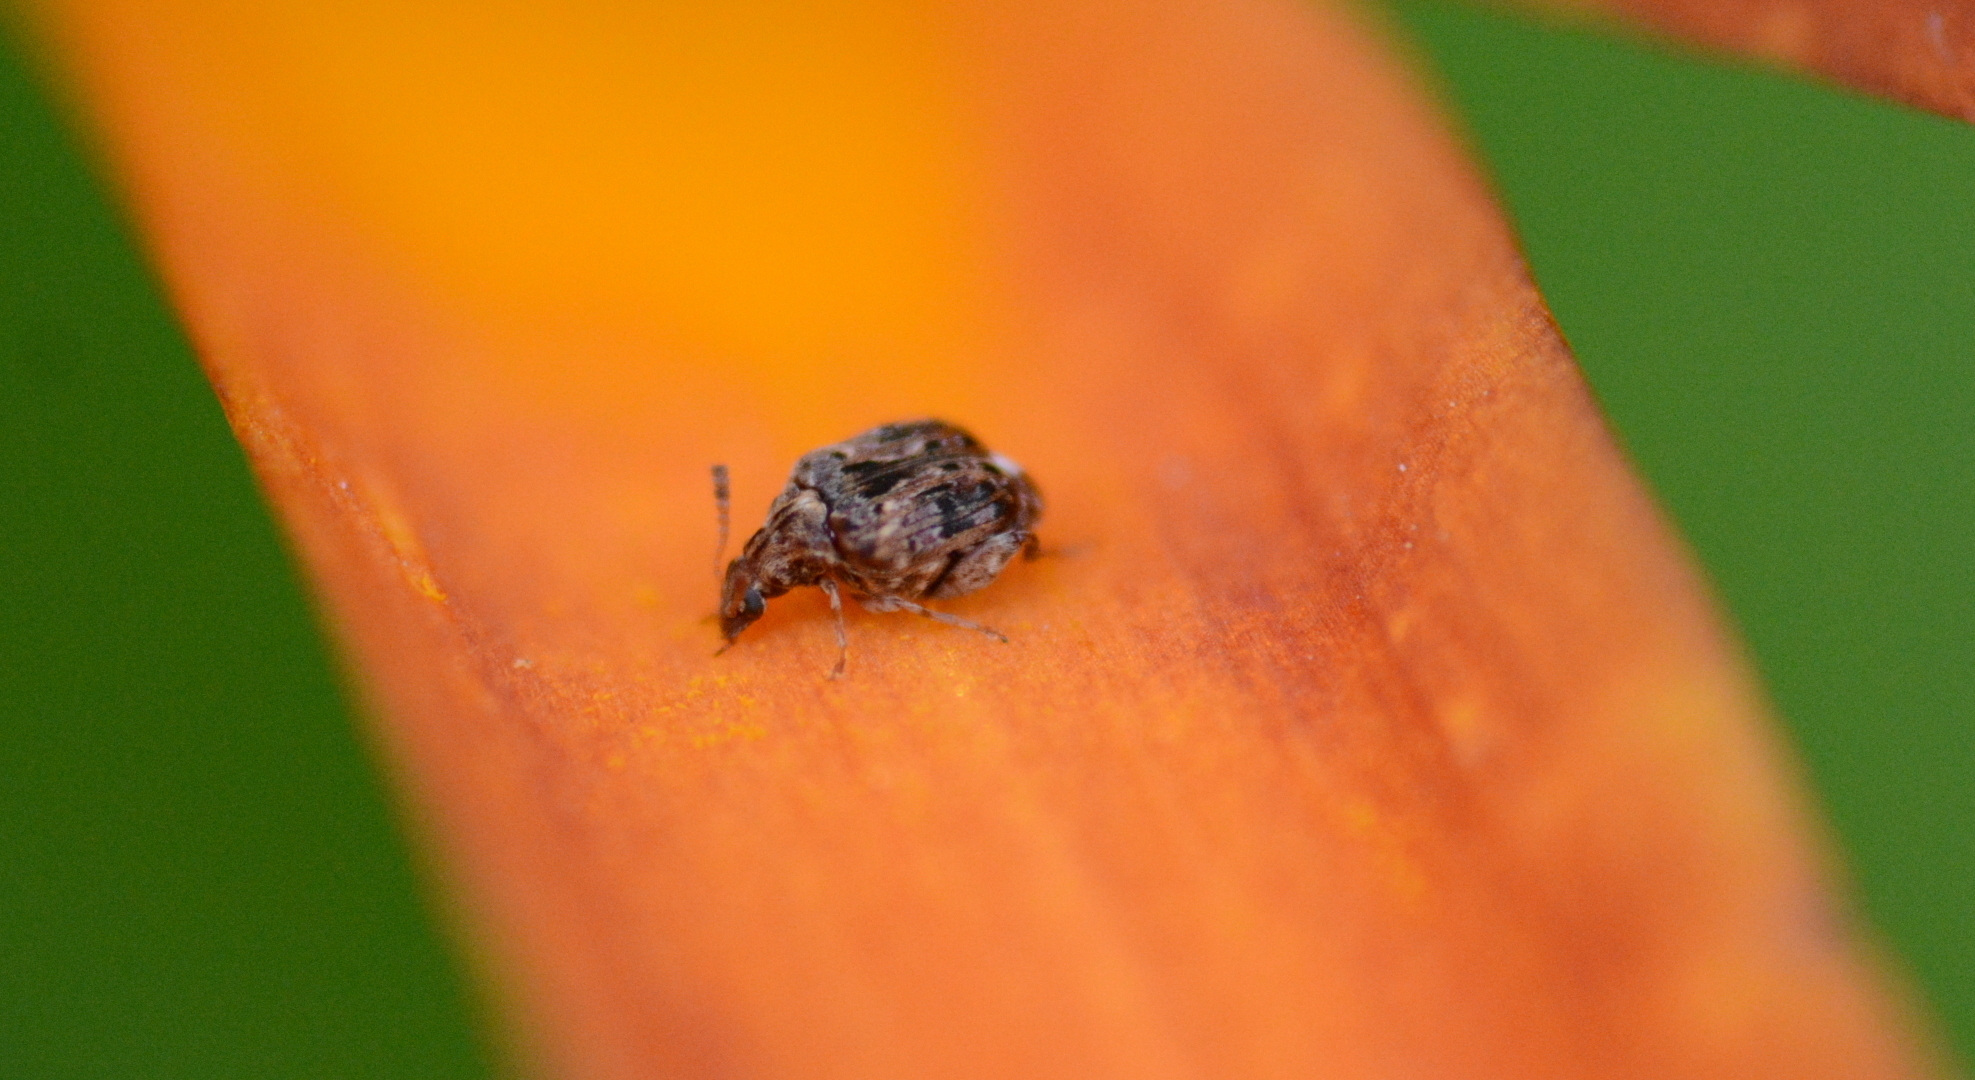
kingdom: Animalia
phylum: Arthropoda
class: Insecta
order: Coleoptera
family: Chrysomelidae
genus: Gibbobruchus
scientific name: Gibbobruchus mimus
